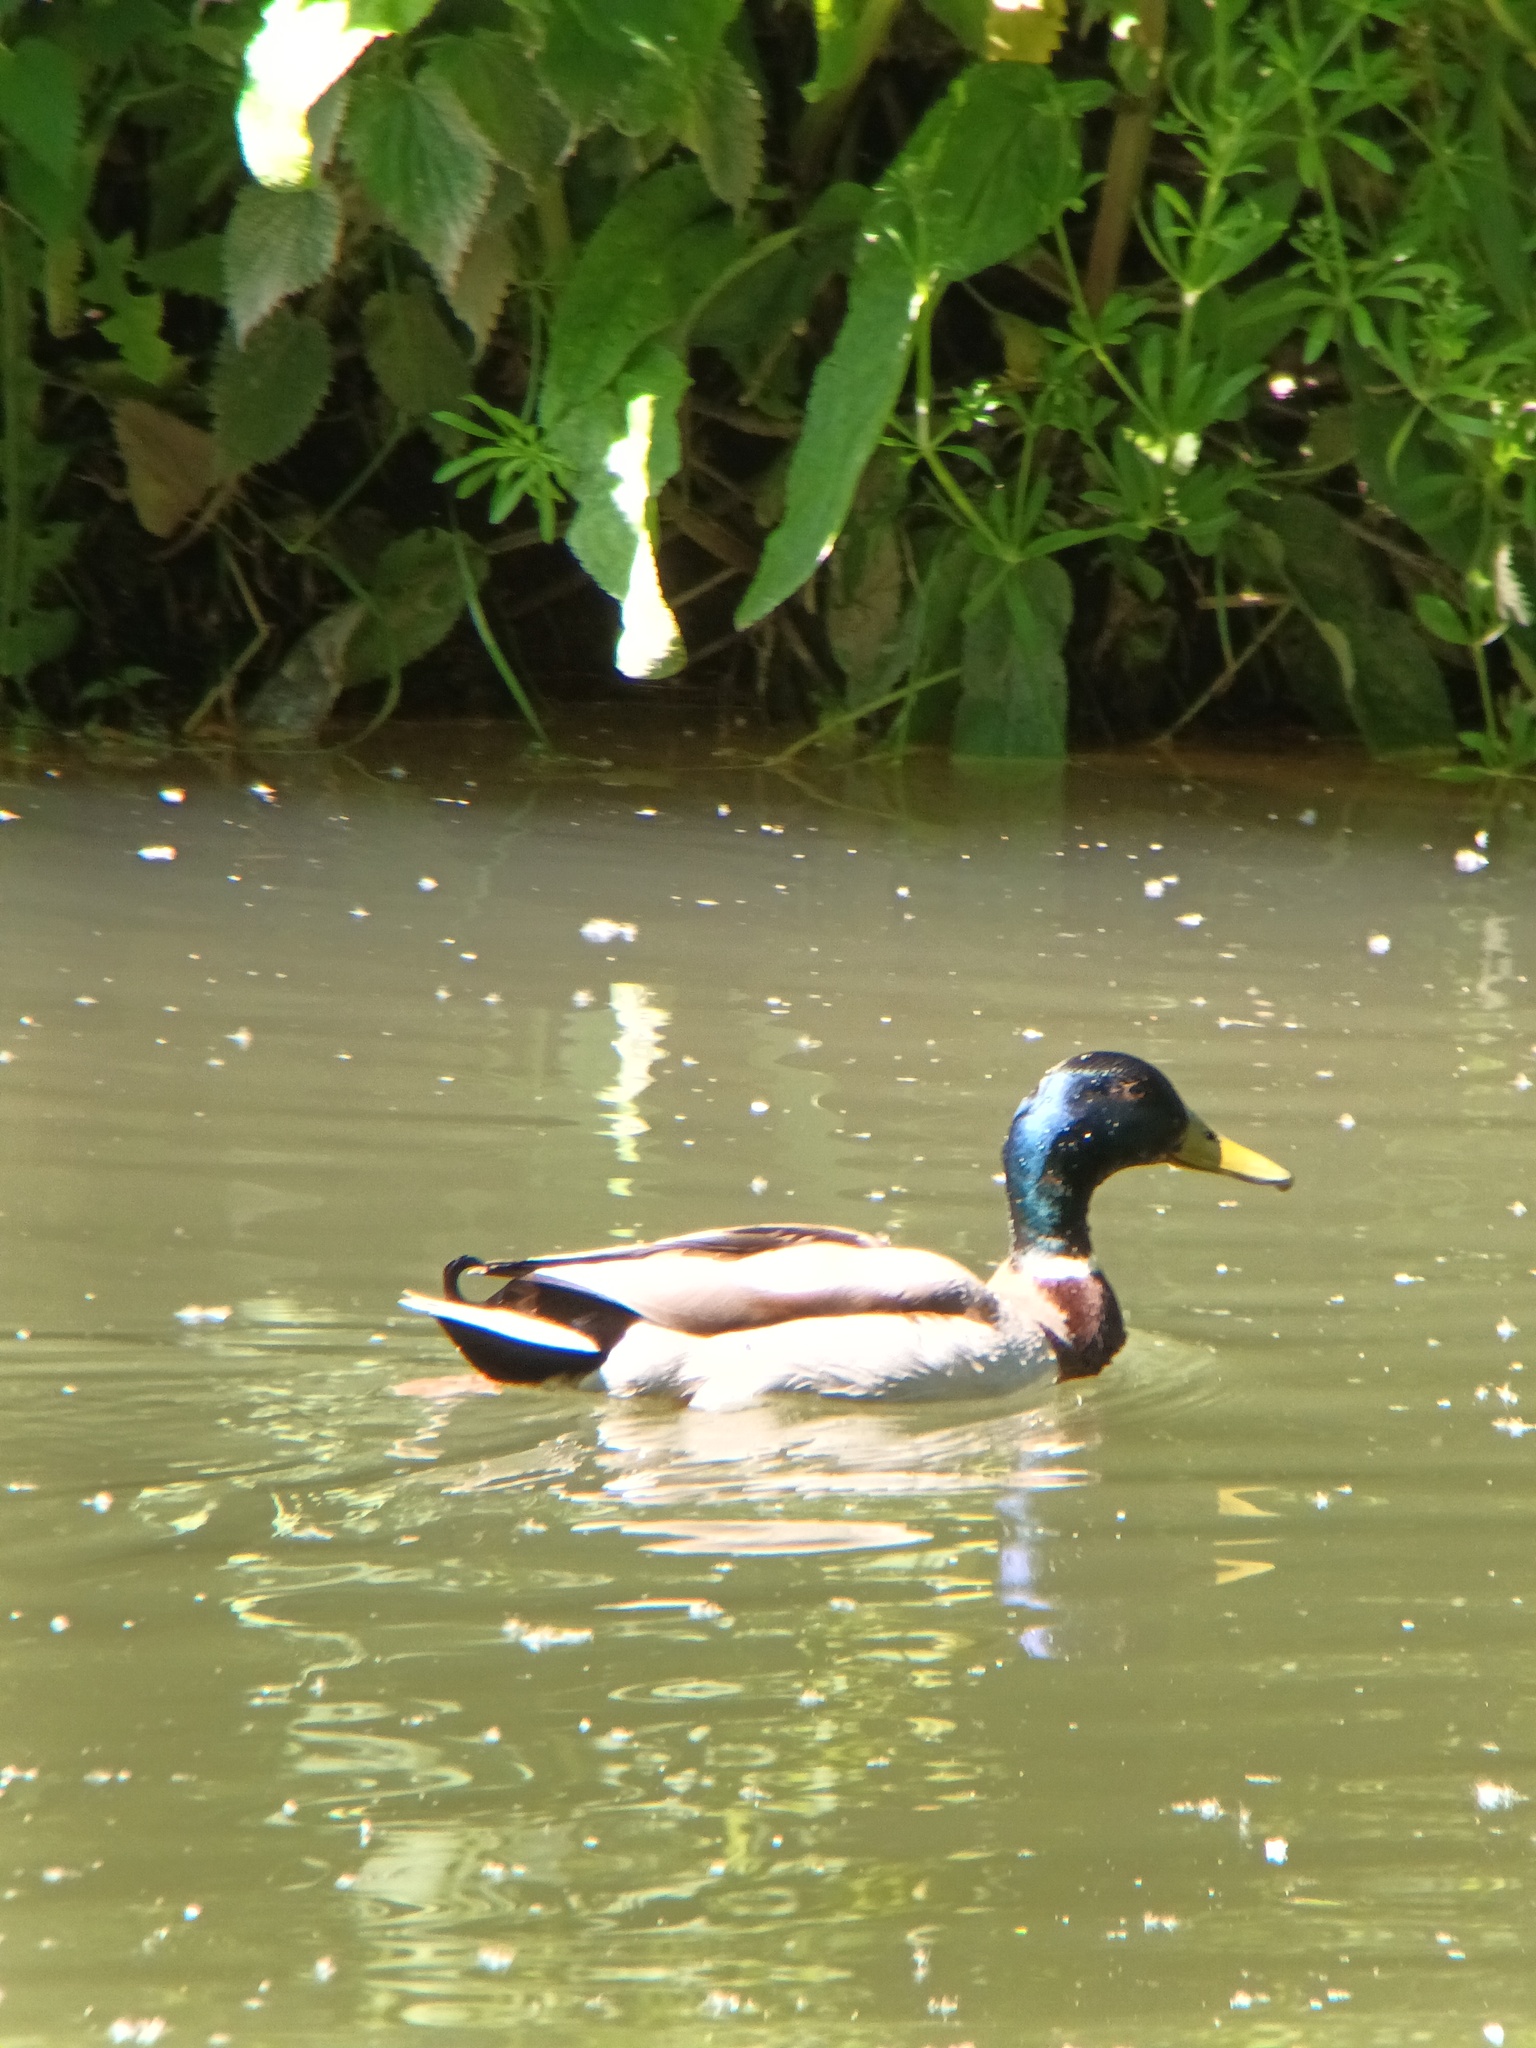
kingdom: Animalia
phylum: Chordata
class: Aves
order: Anseriformes
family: Anatidae
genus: Anas
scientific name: Anas platyrhynchos
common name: Mallard
